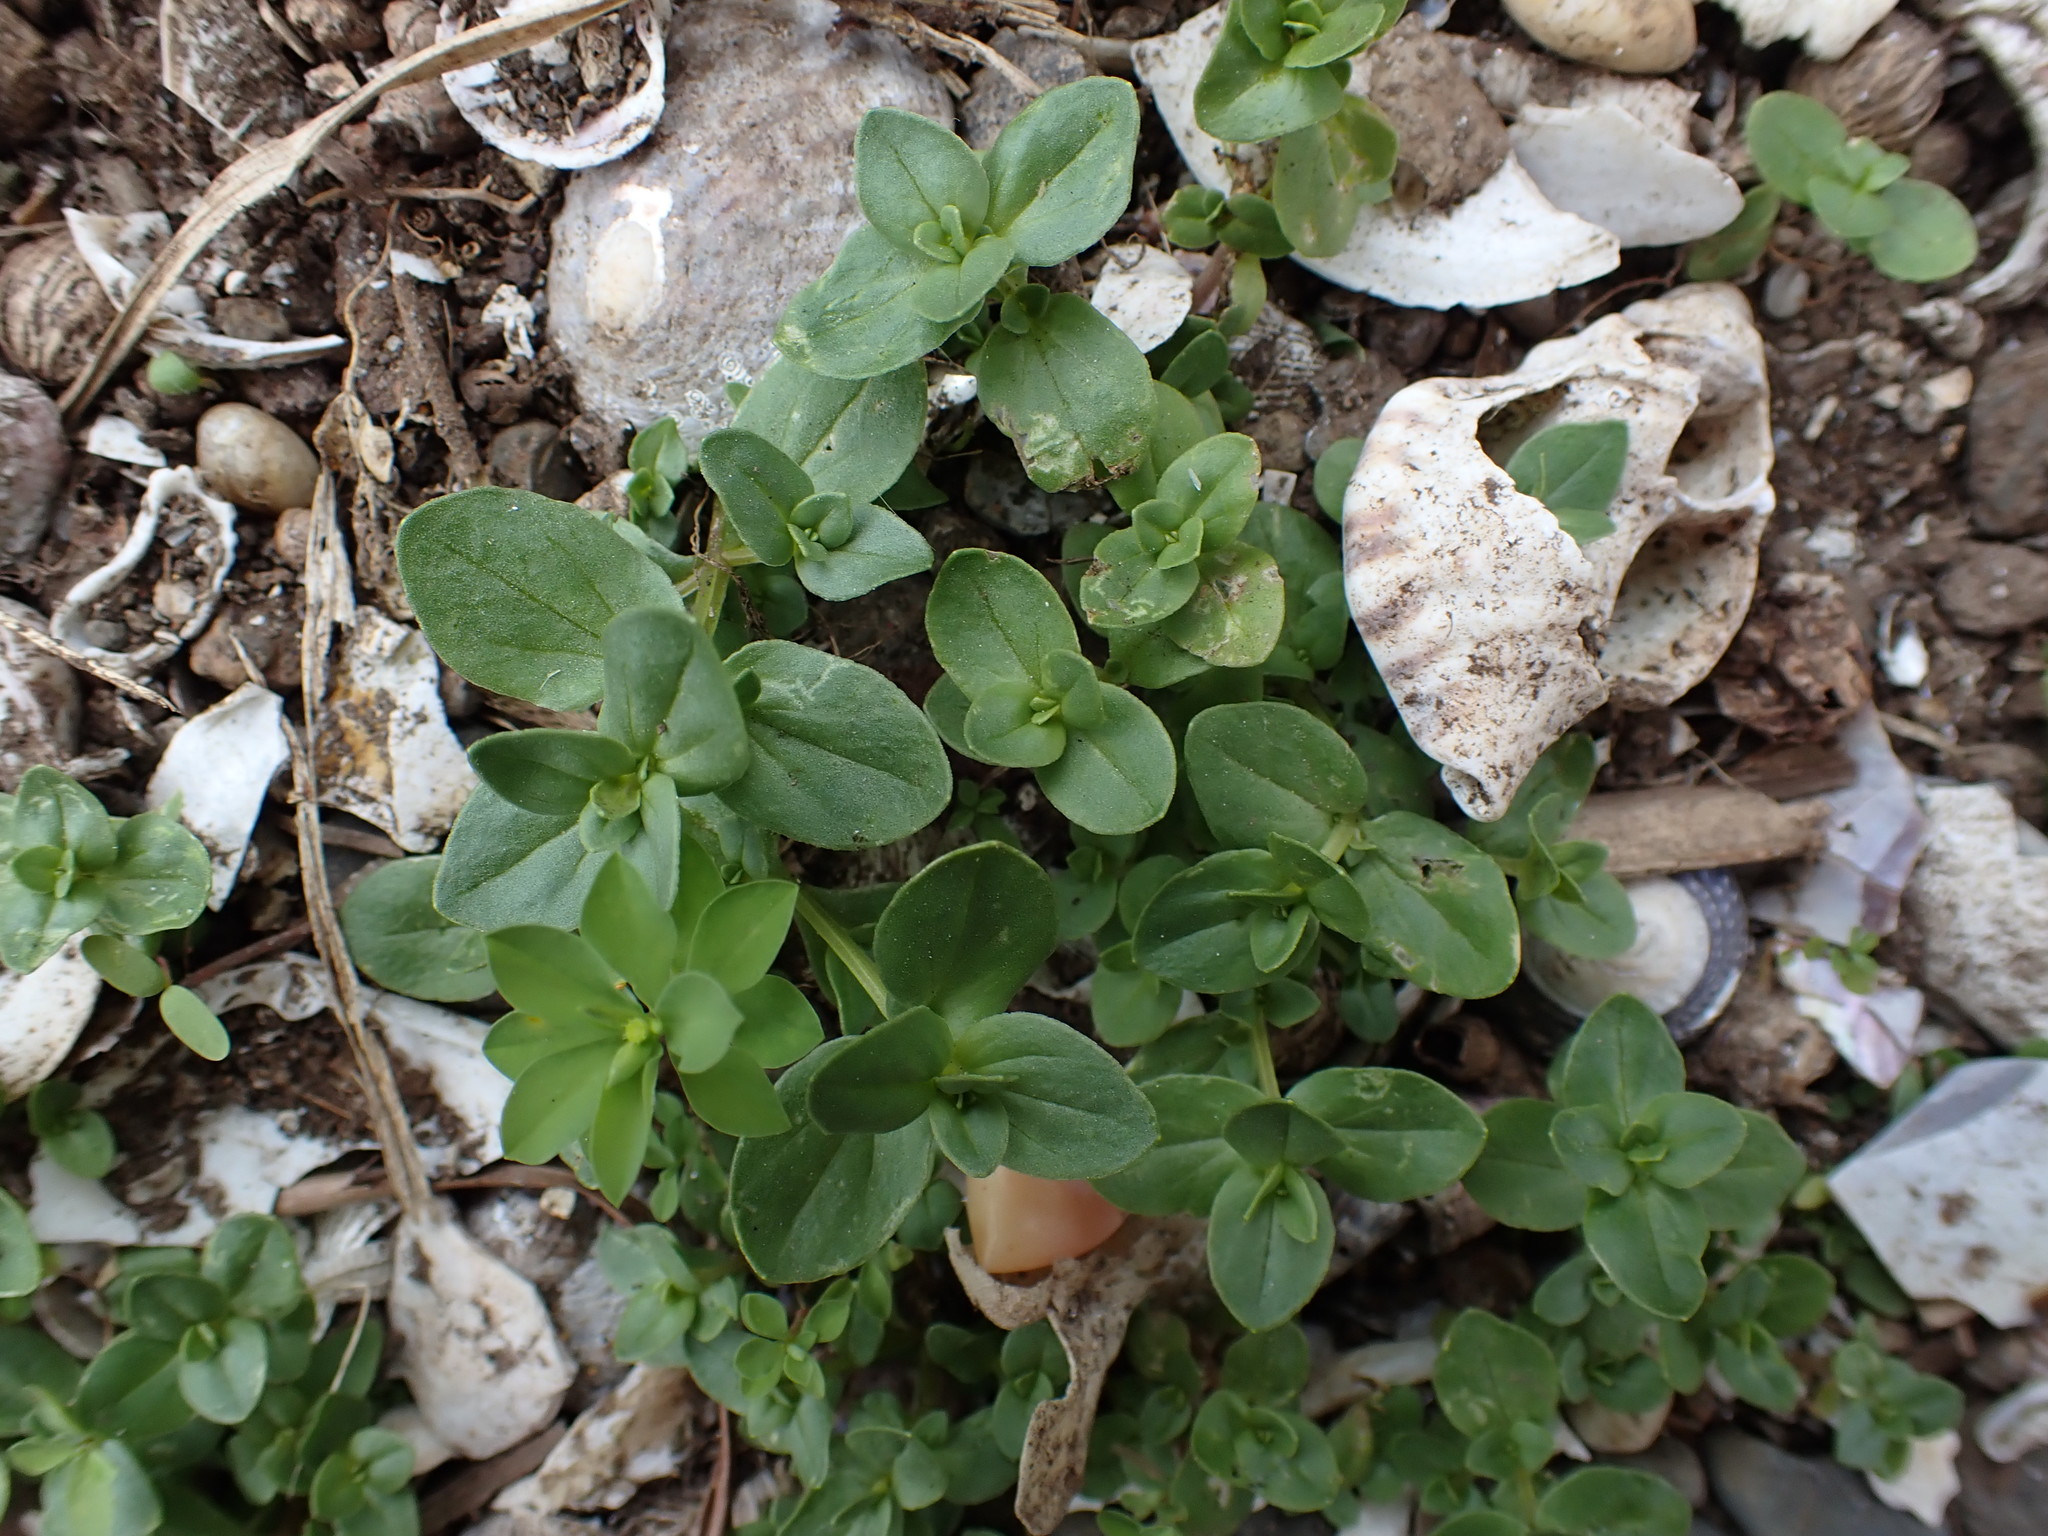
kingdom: Plantae
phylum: Tracheophyta
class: Magnoliopsida
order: Ericales
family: Primulaceae
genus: Lysimachia
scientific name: Lysimachia arvensis
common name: Scarlet pimpernel
